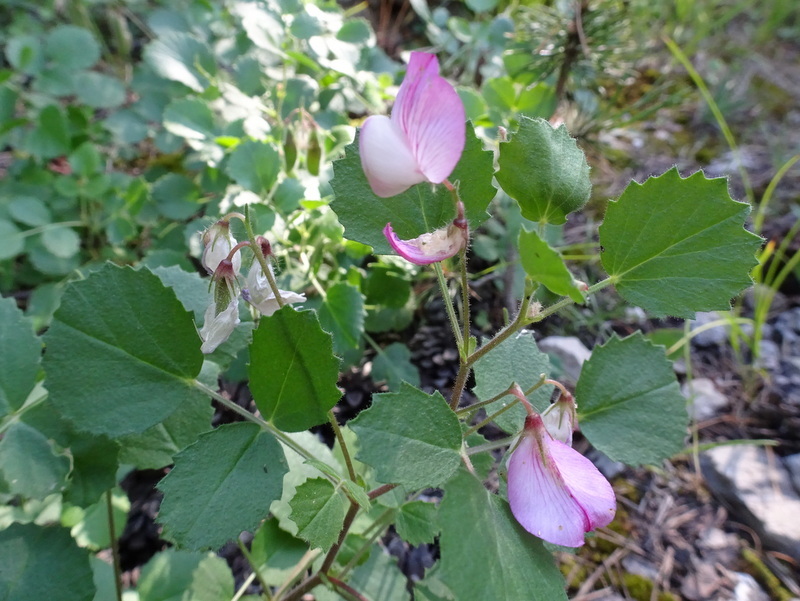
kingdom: Plantae
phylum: Tracheophyta
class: Magnoliopsida
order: Fabales
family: Fabaceae
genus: Ononis
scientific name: Ononis rotundifolia
